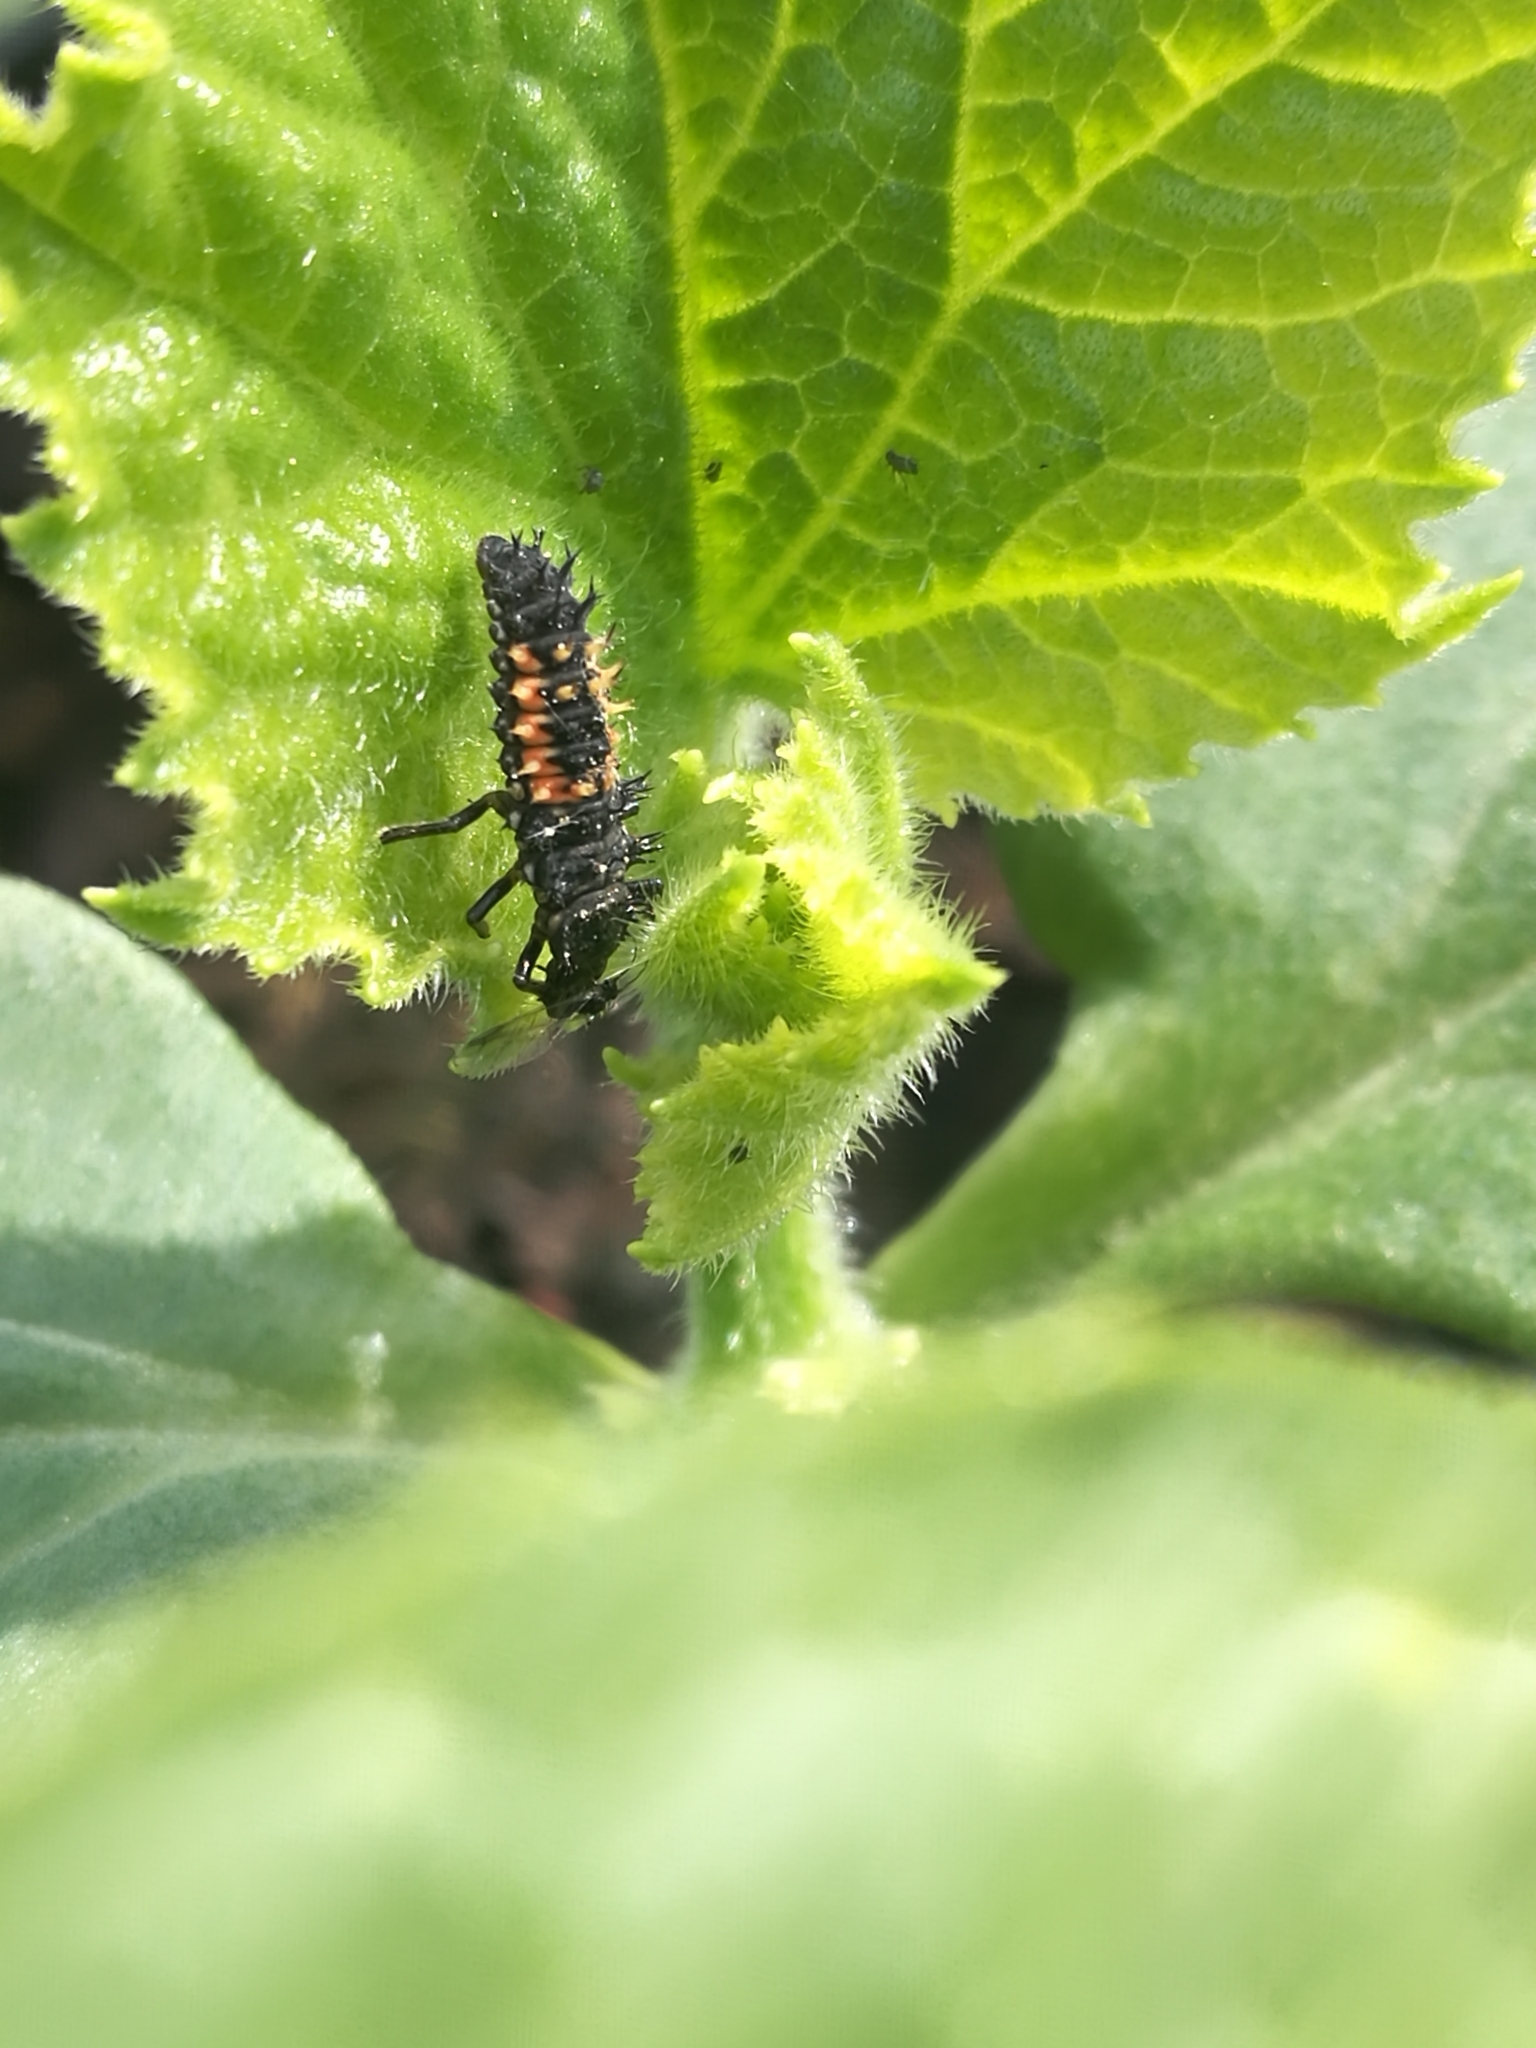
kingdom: Animalia
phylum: Arthropoda
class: Insecta
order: Coleoptera
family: Coccinellidae
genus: Harmonia
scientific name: Harmonia axyridis
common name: Harlequin ladybird
